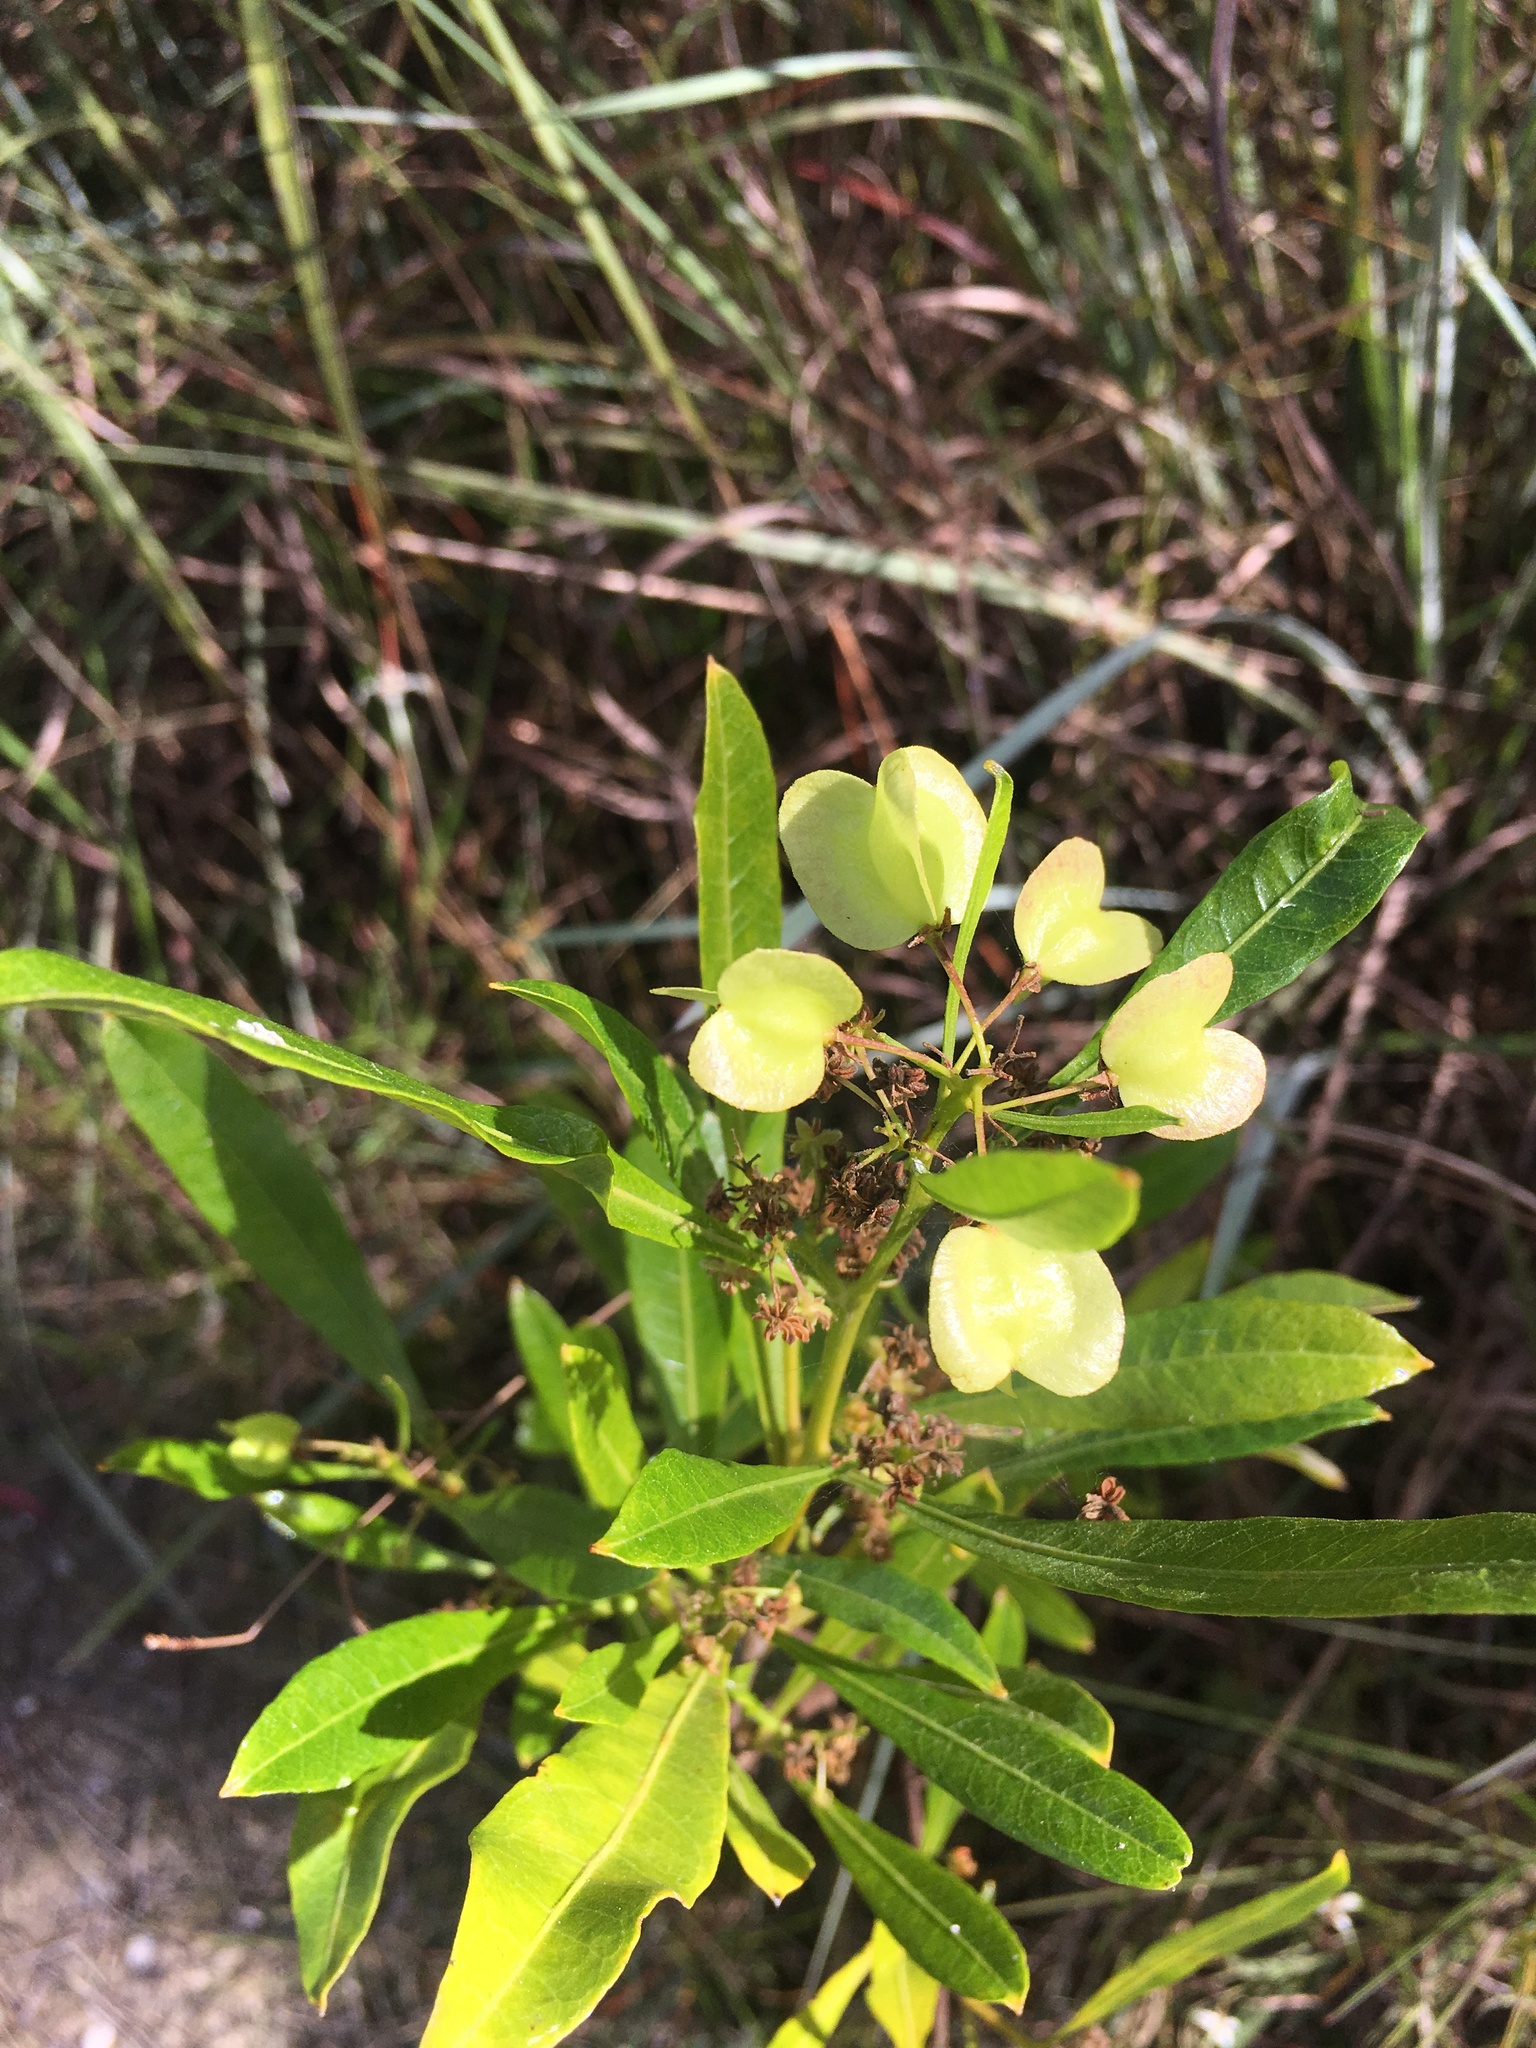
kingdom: Plantae
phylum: Tracheophyta
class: Magnoliopsida
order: Sapindales
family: Sapindaceae
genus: Dodonaea
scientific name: Dodonaea viscosa
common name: Hopbush
